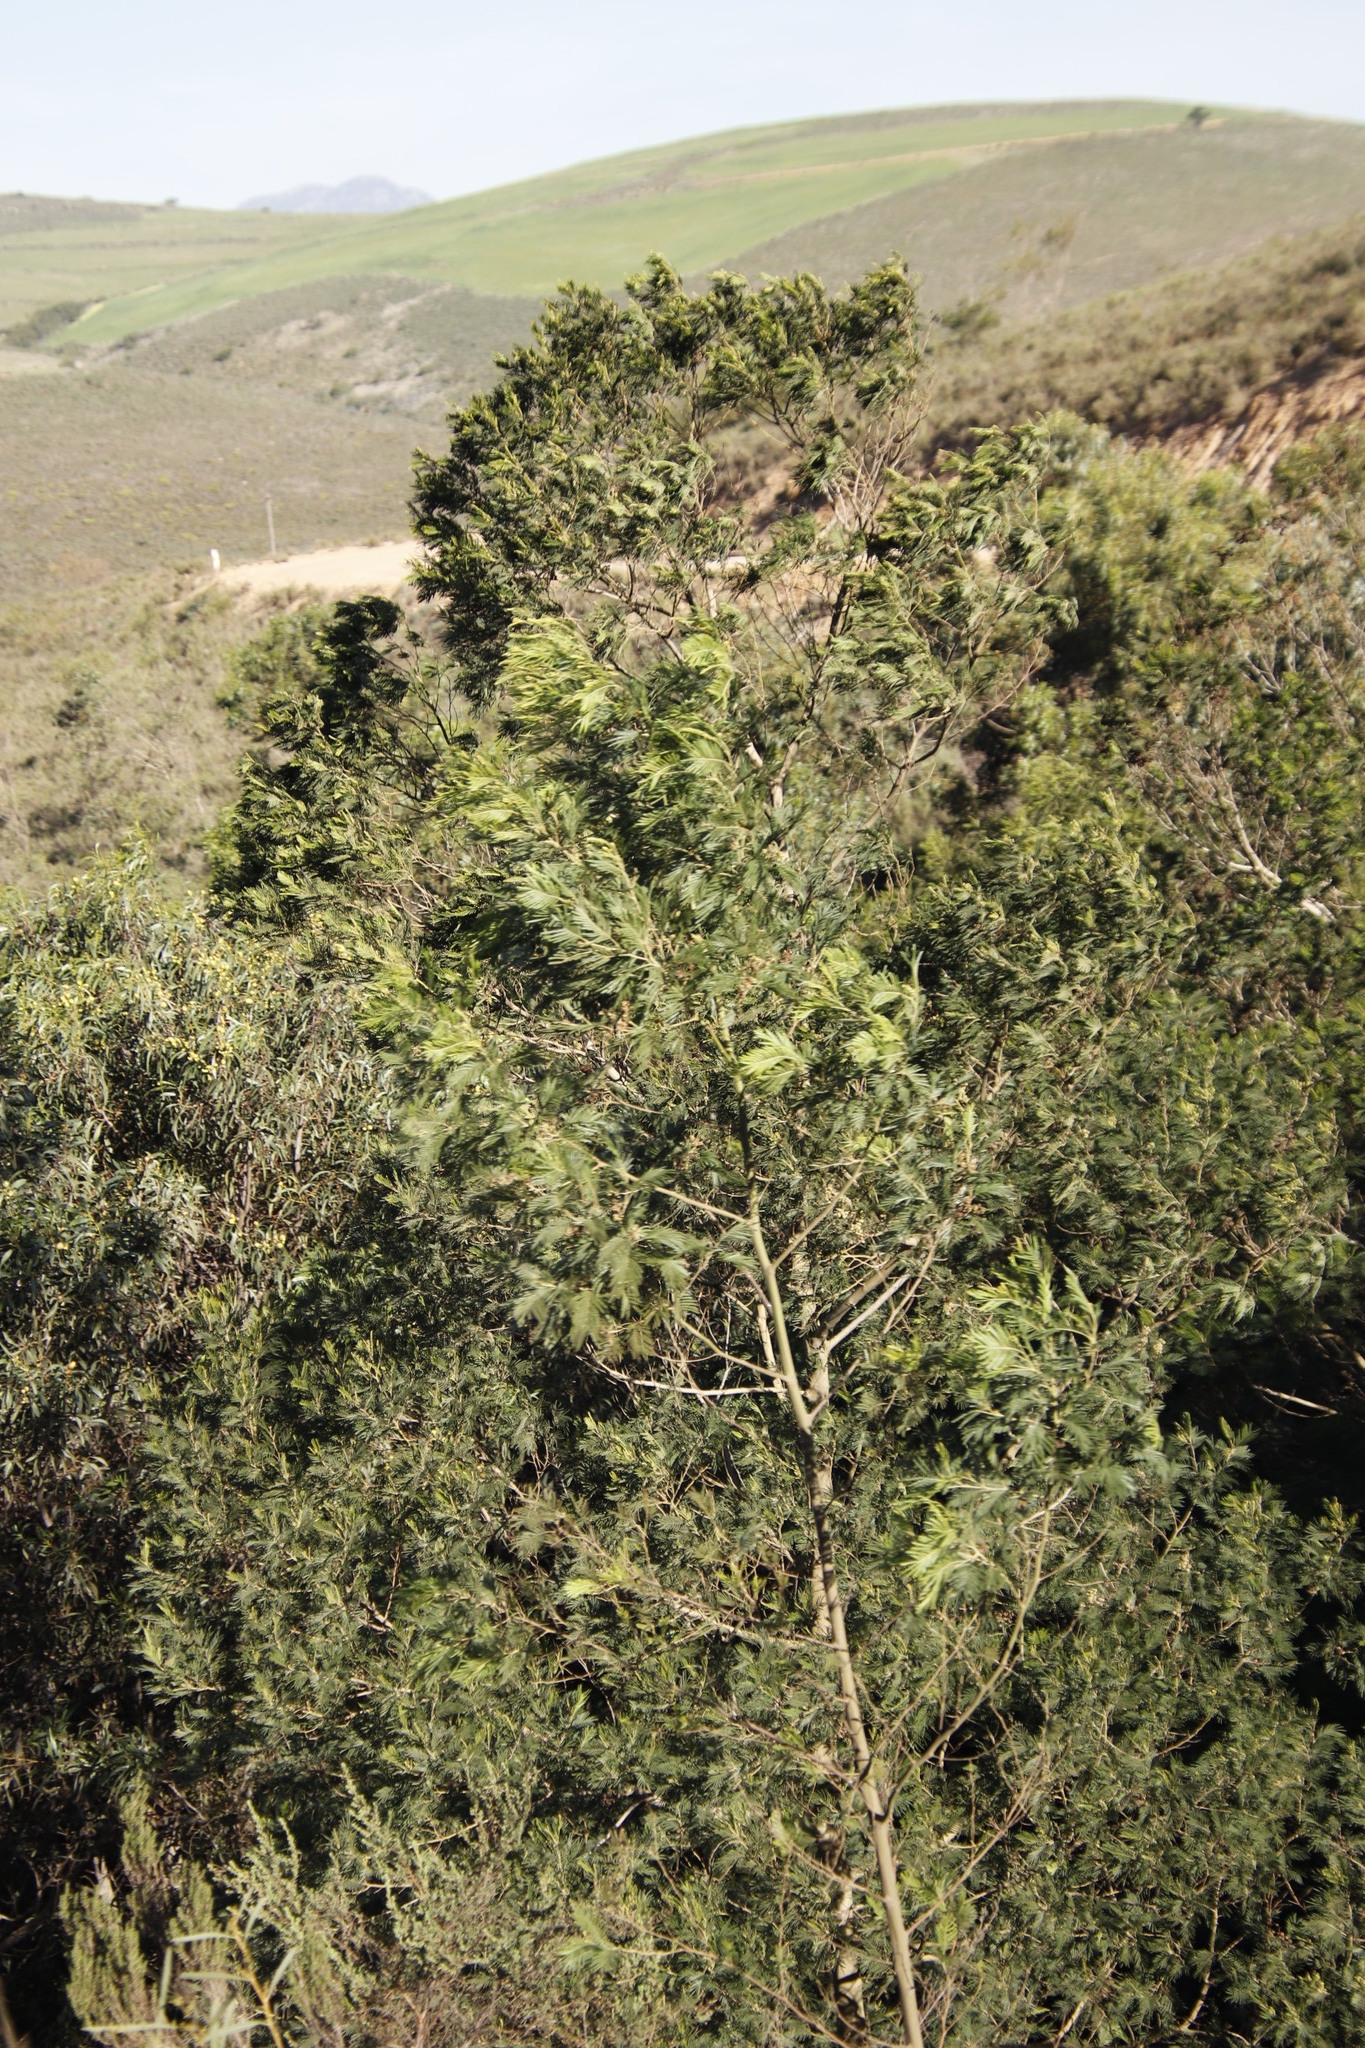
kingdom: Plantae
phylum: Tracheophyta
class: Magnoliopsida
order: Fabales
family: Fabaceae
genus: Acacia
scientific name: Acacia mearnsii
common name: Black wattle
